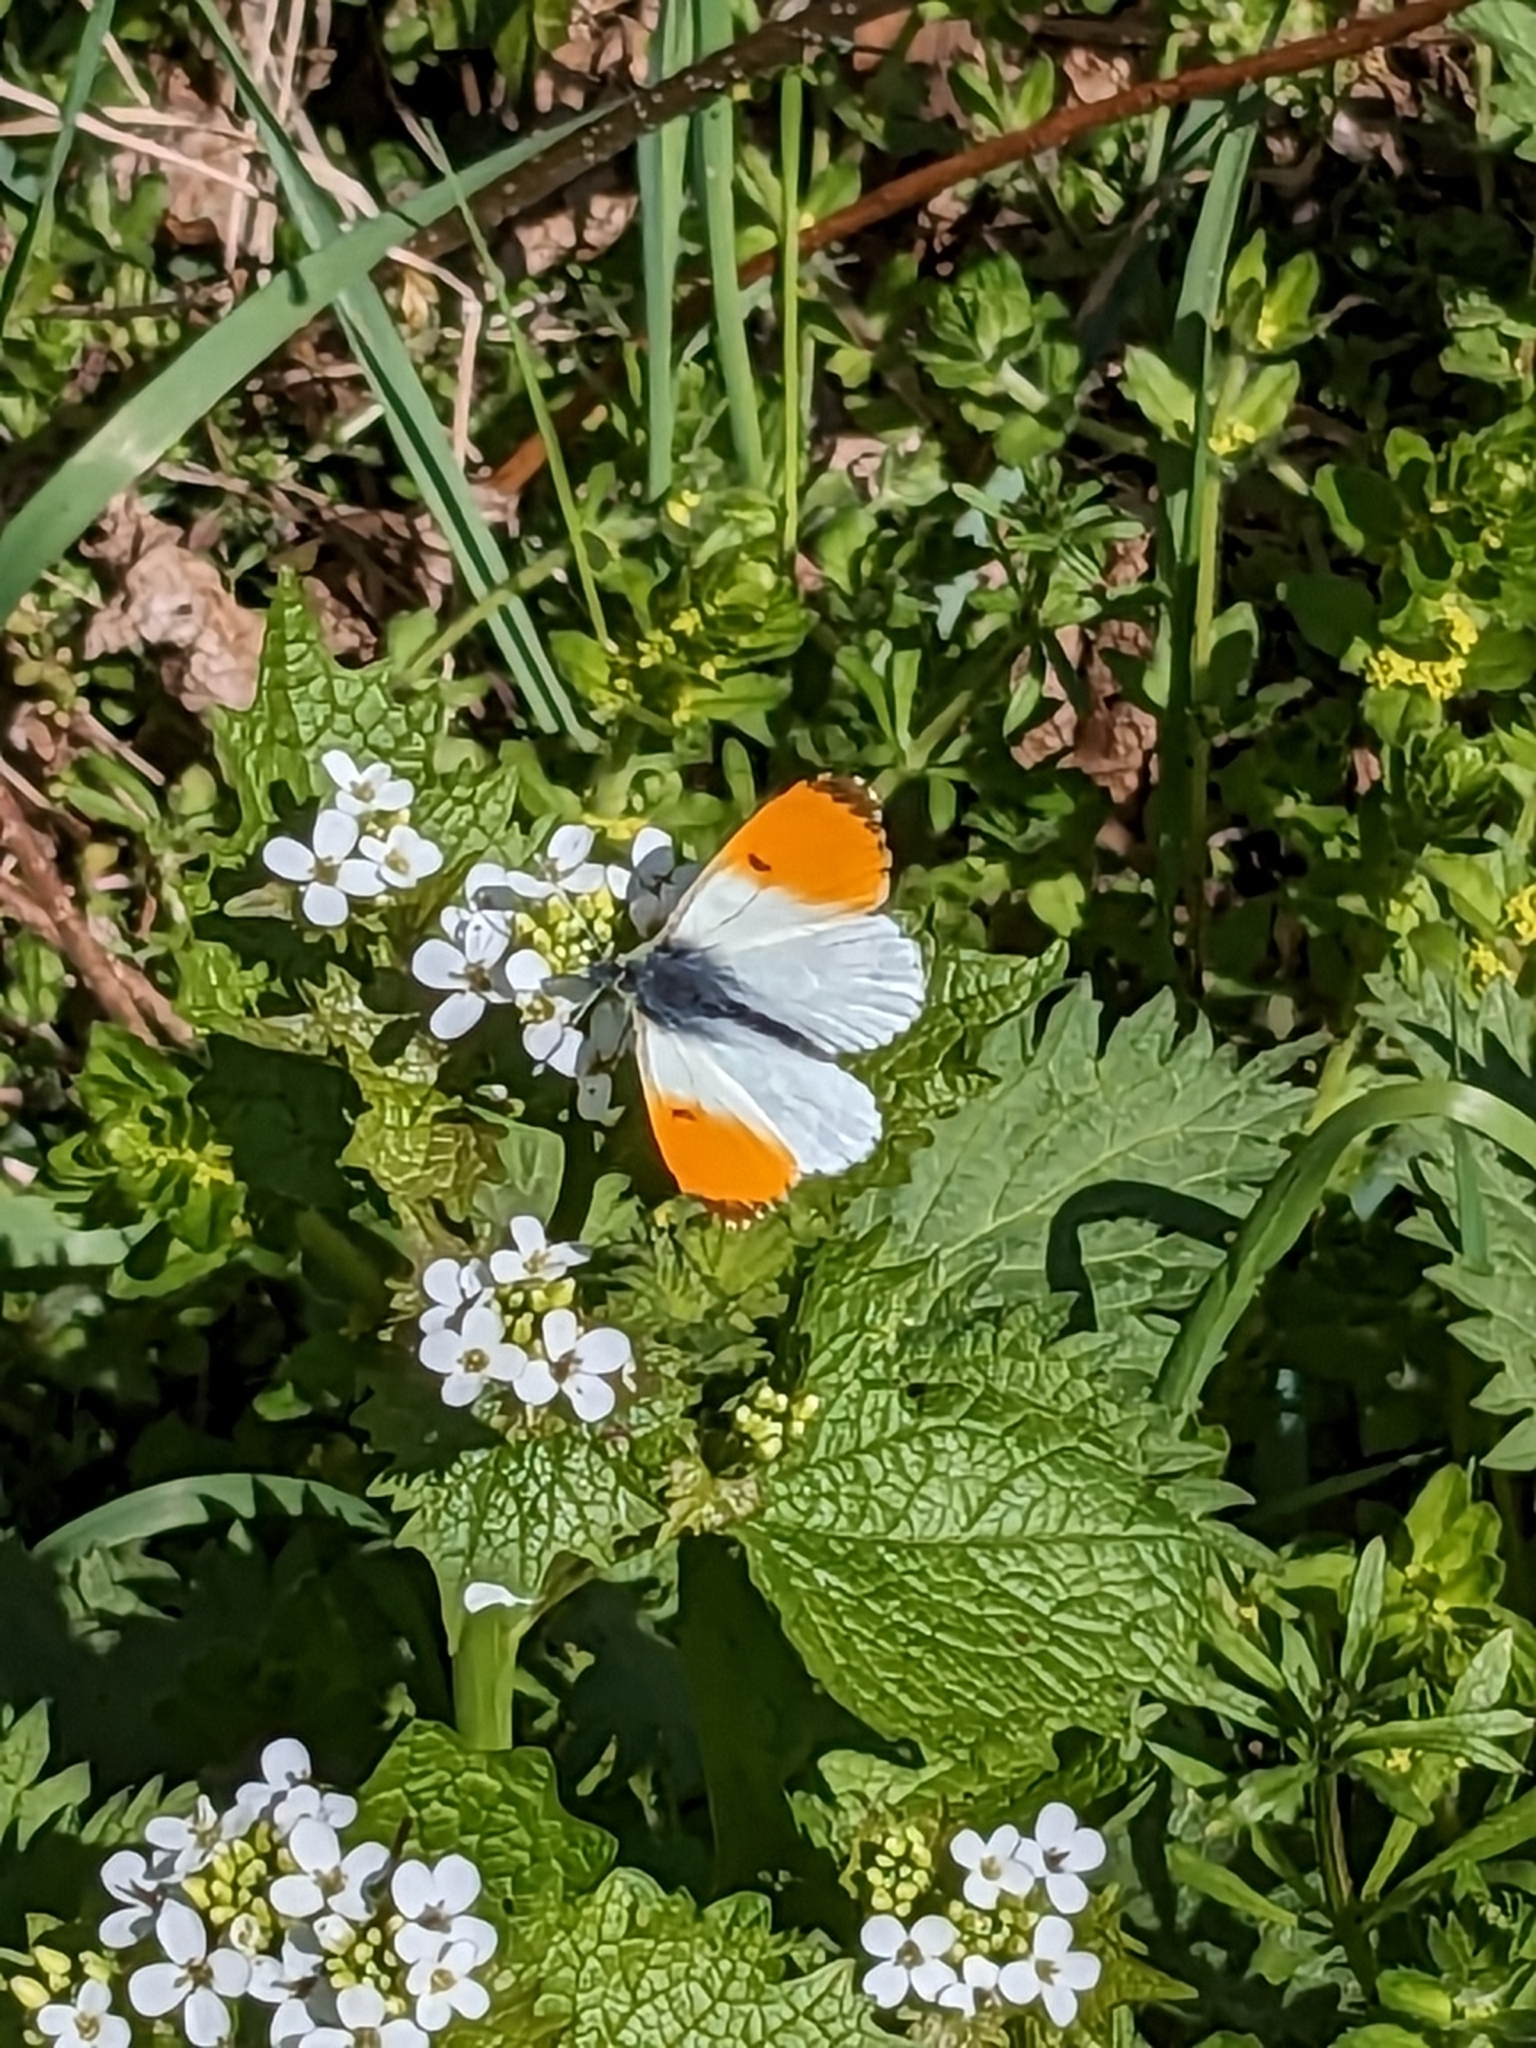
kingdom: Animalia
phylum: Arthropoda
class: Insecta
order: Lepidoptera
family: Pieridae
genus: Anthocharis
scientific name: Anthocharis cardamines
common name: Orange-tip
